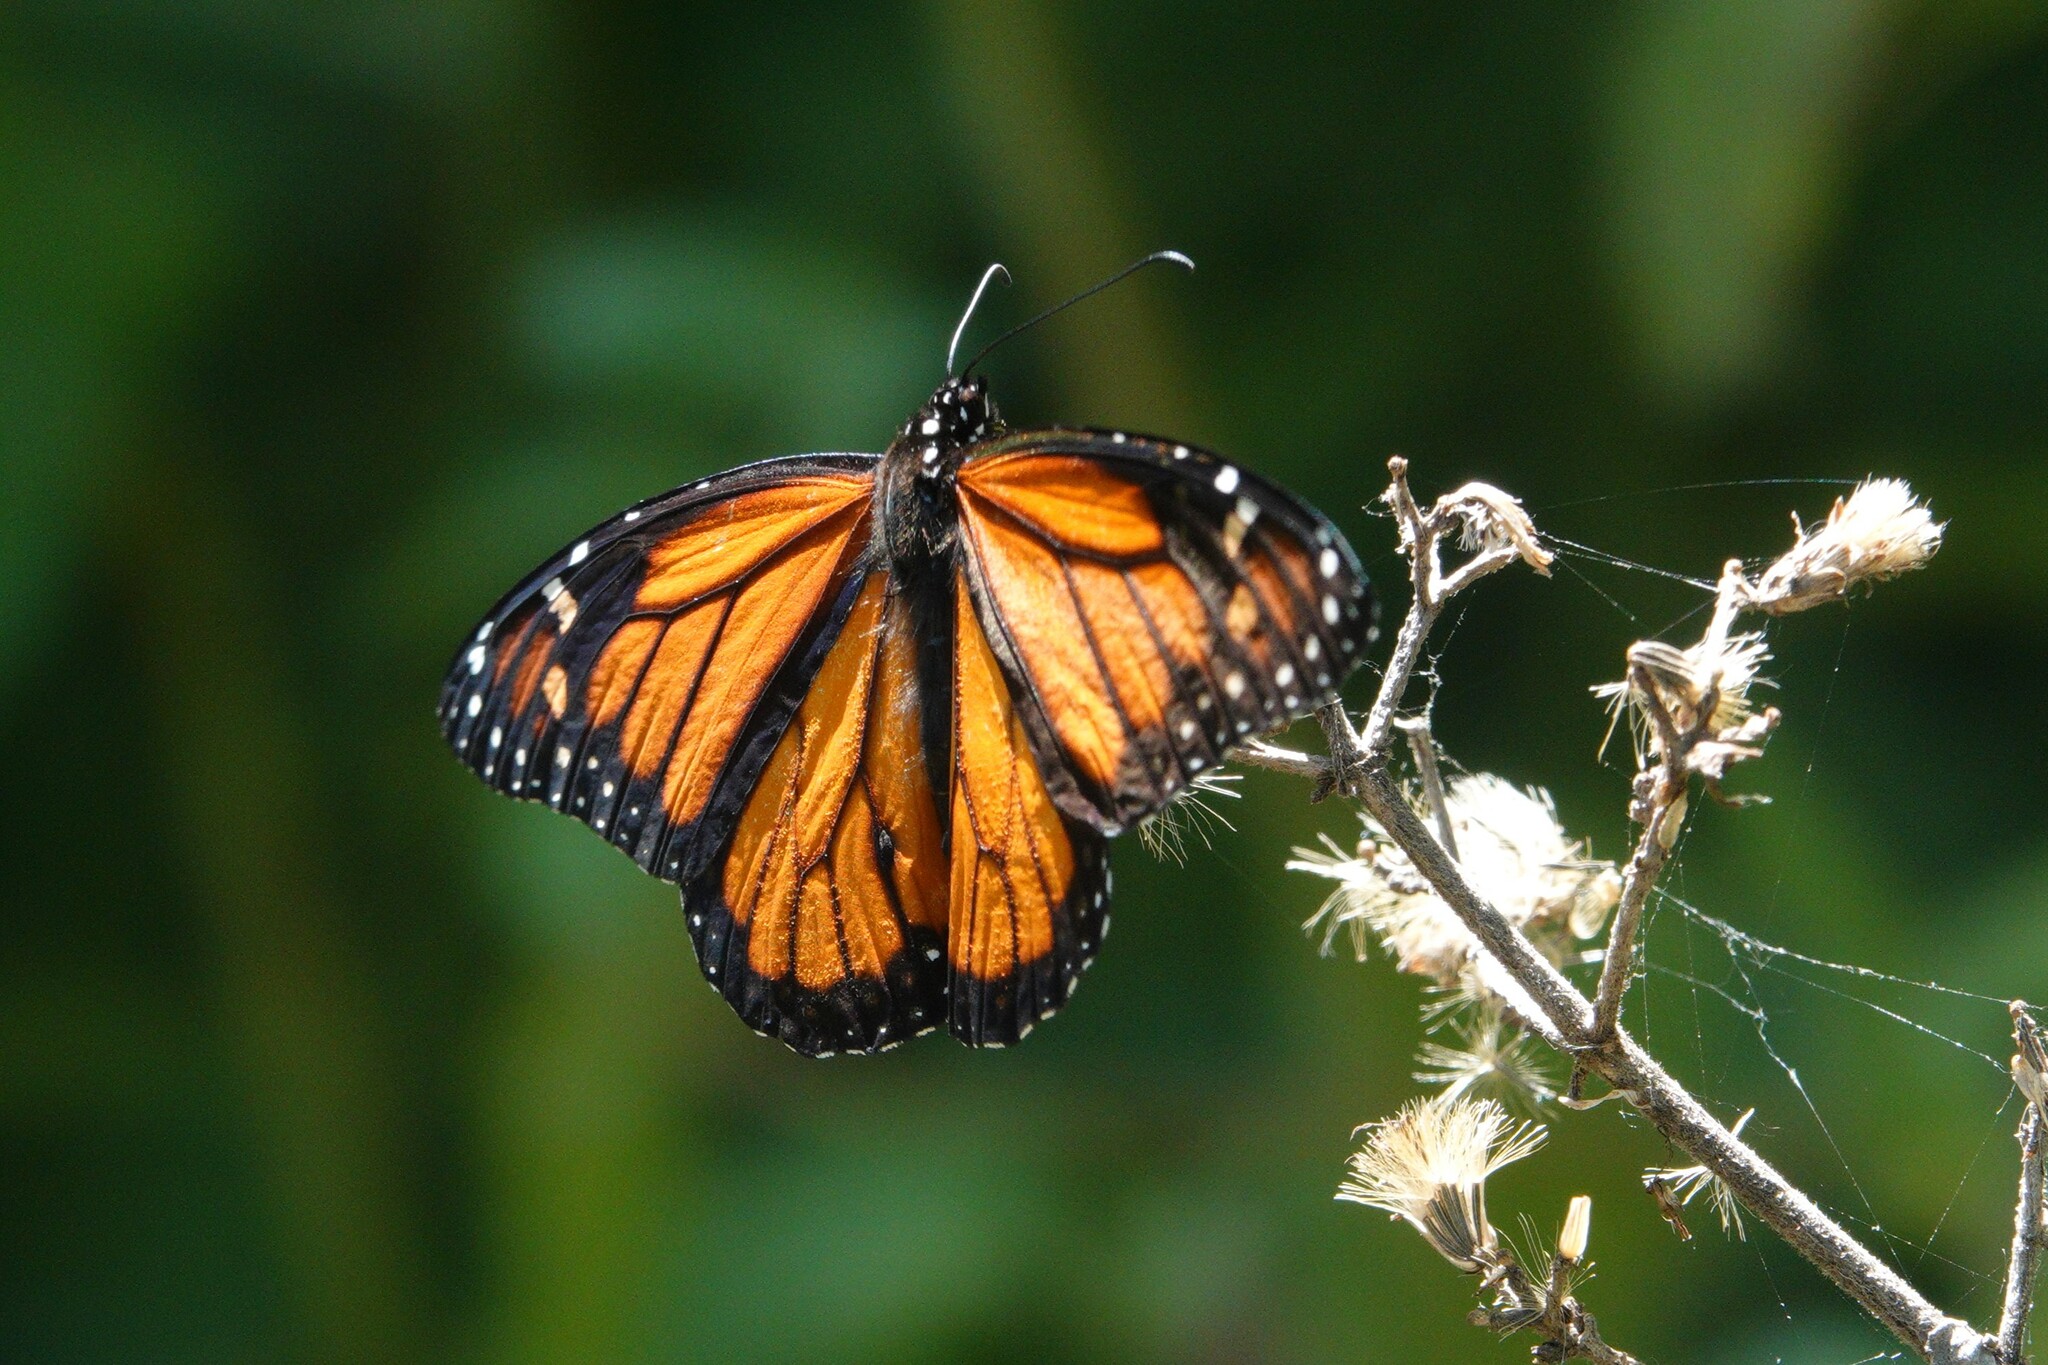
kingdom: Animalia
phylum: Arthropoda
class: Insecta
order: Lepidoptera
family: Nymphalidae
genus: Danaus
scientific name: Danaus plexippus
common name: Monarch
